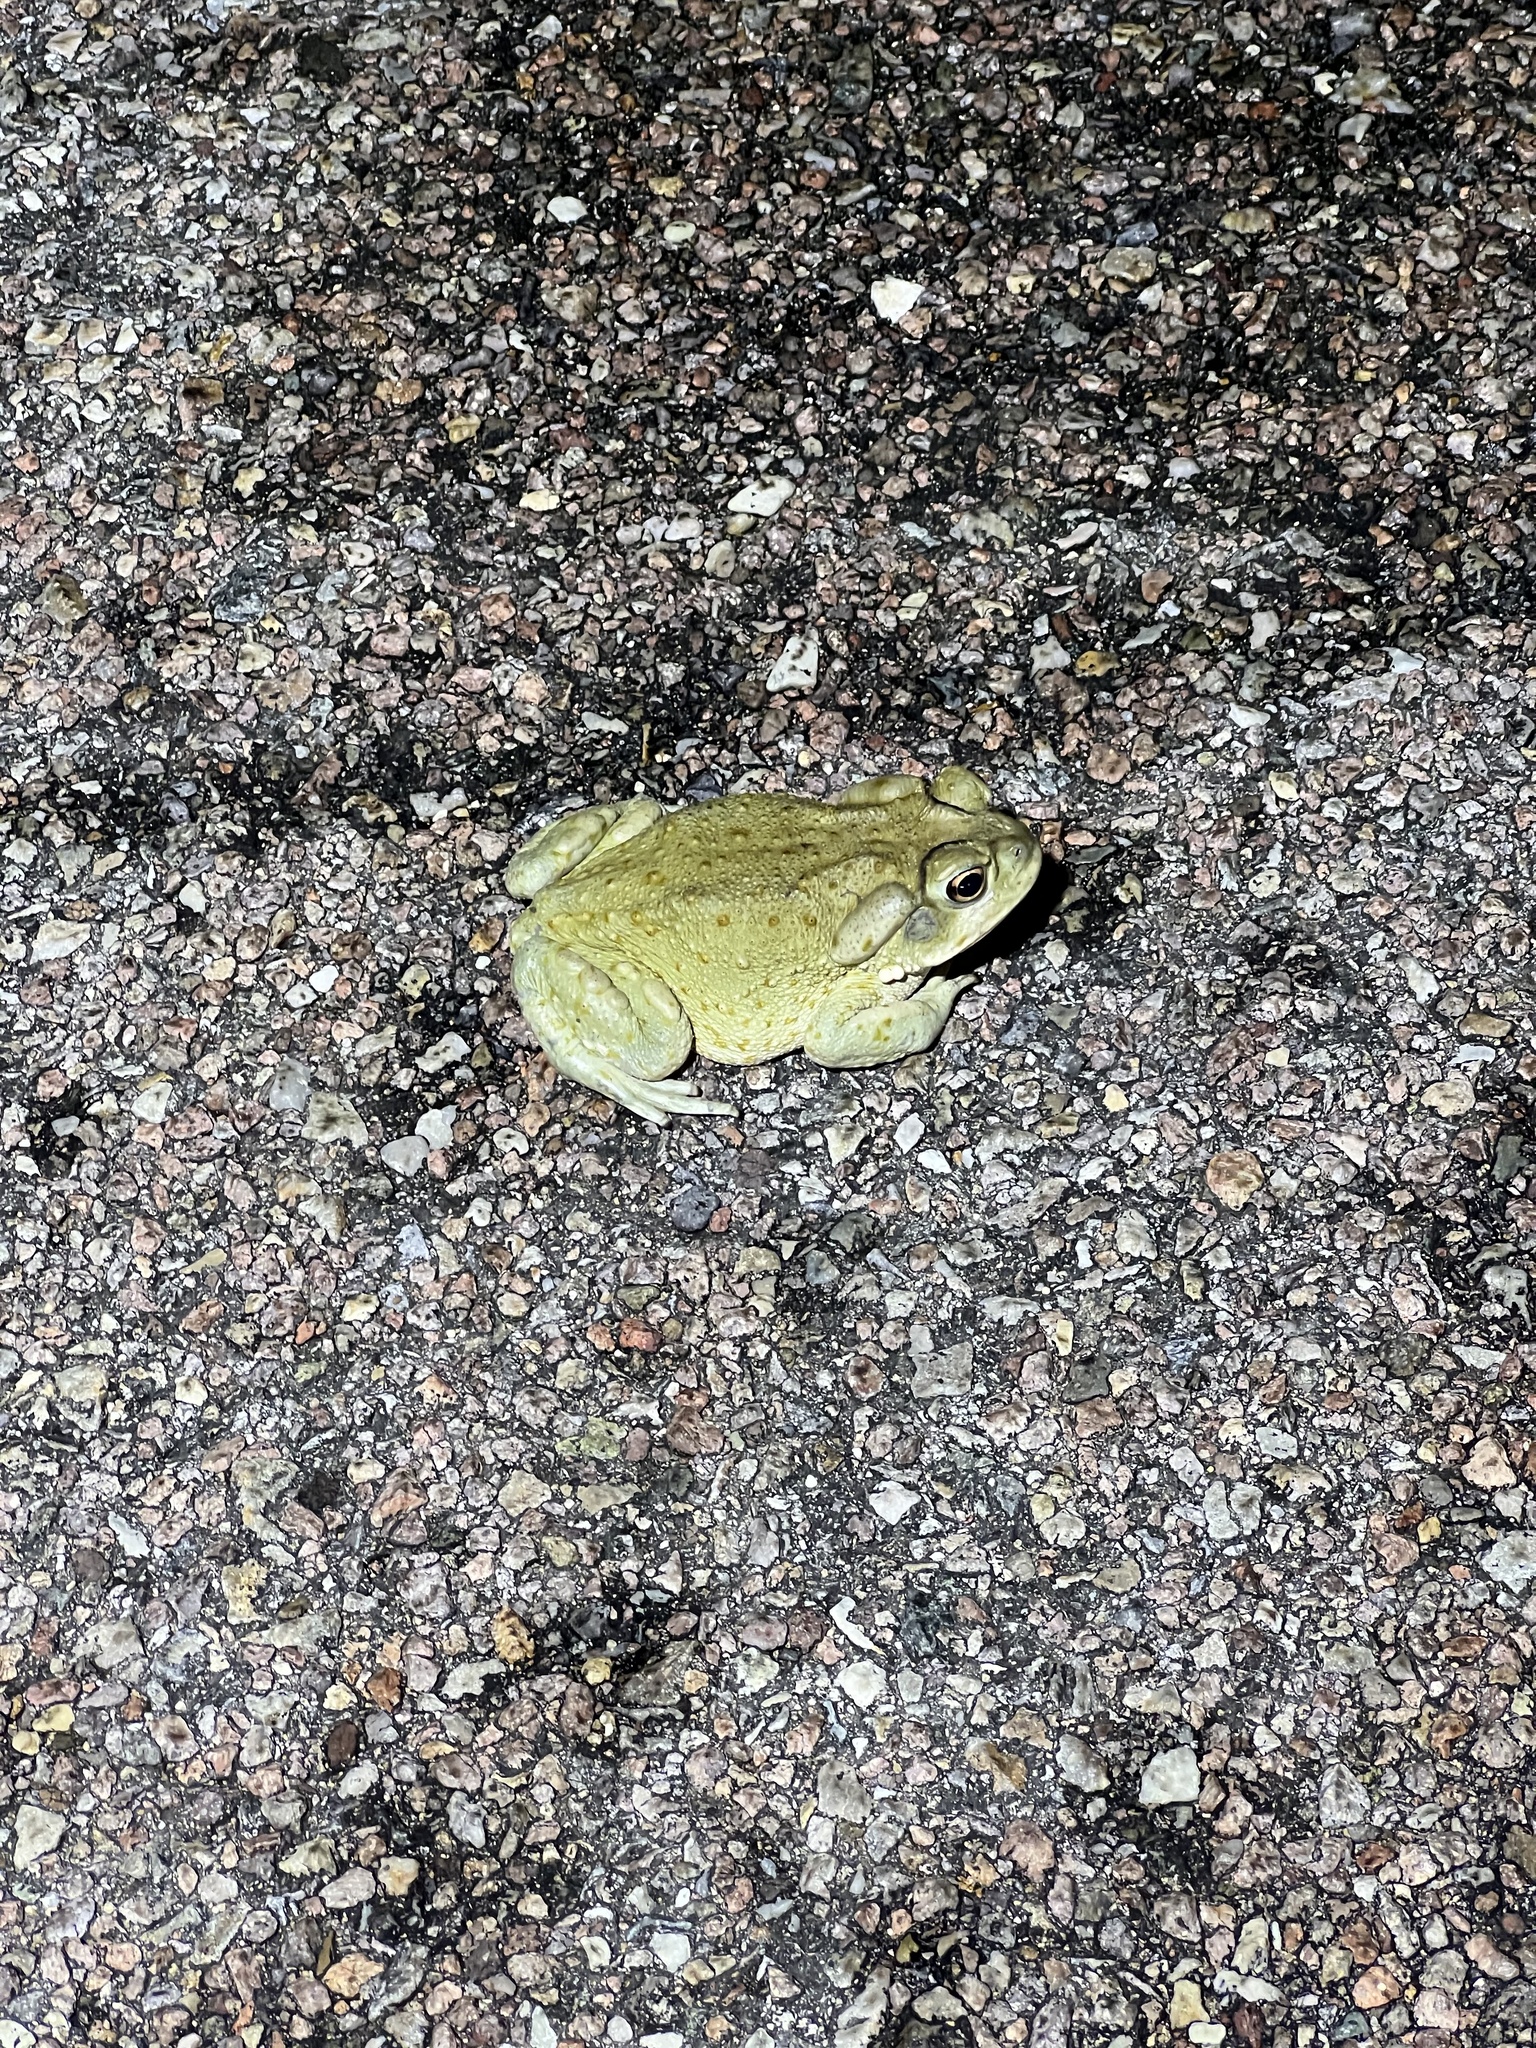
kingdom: Animalia
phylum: Chordata
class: Amphibia
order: Anura
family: Bufonidae
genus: Incilius
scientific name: Incilius alvarius
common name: Sonoran desert toad
